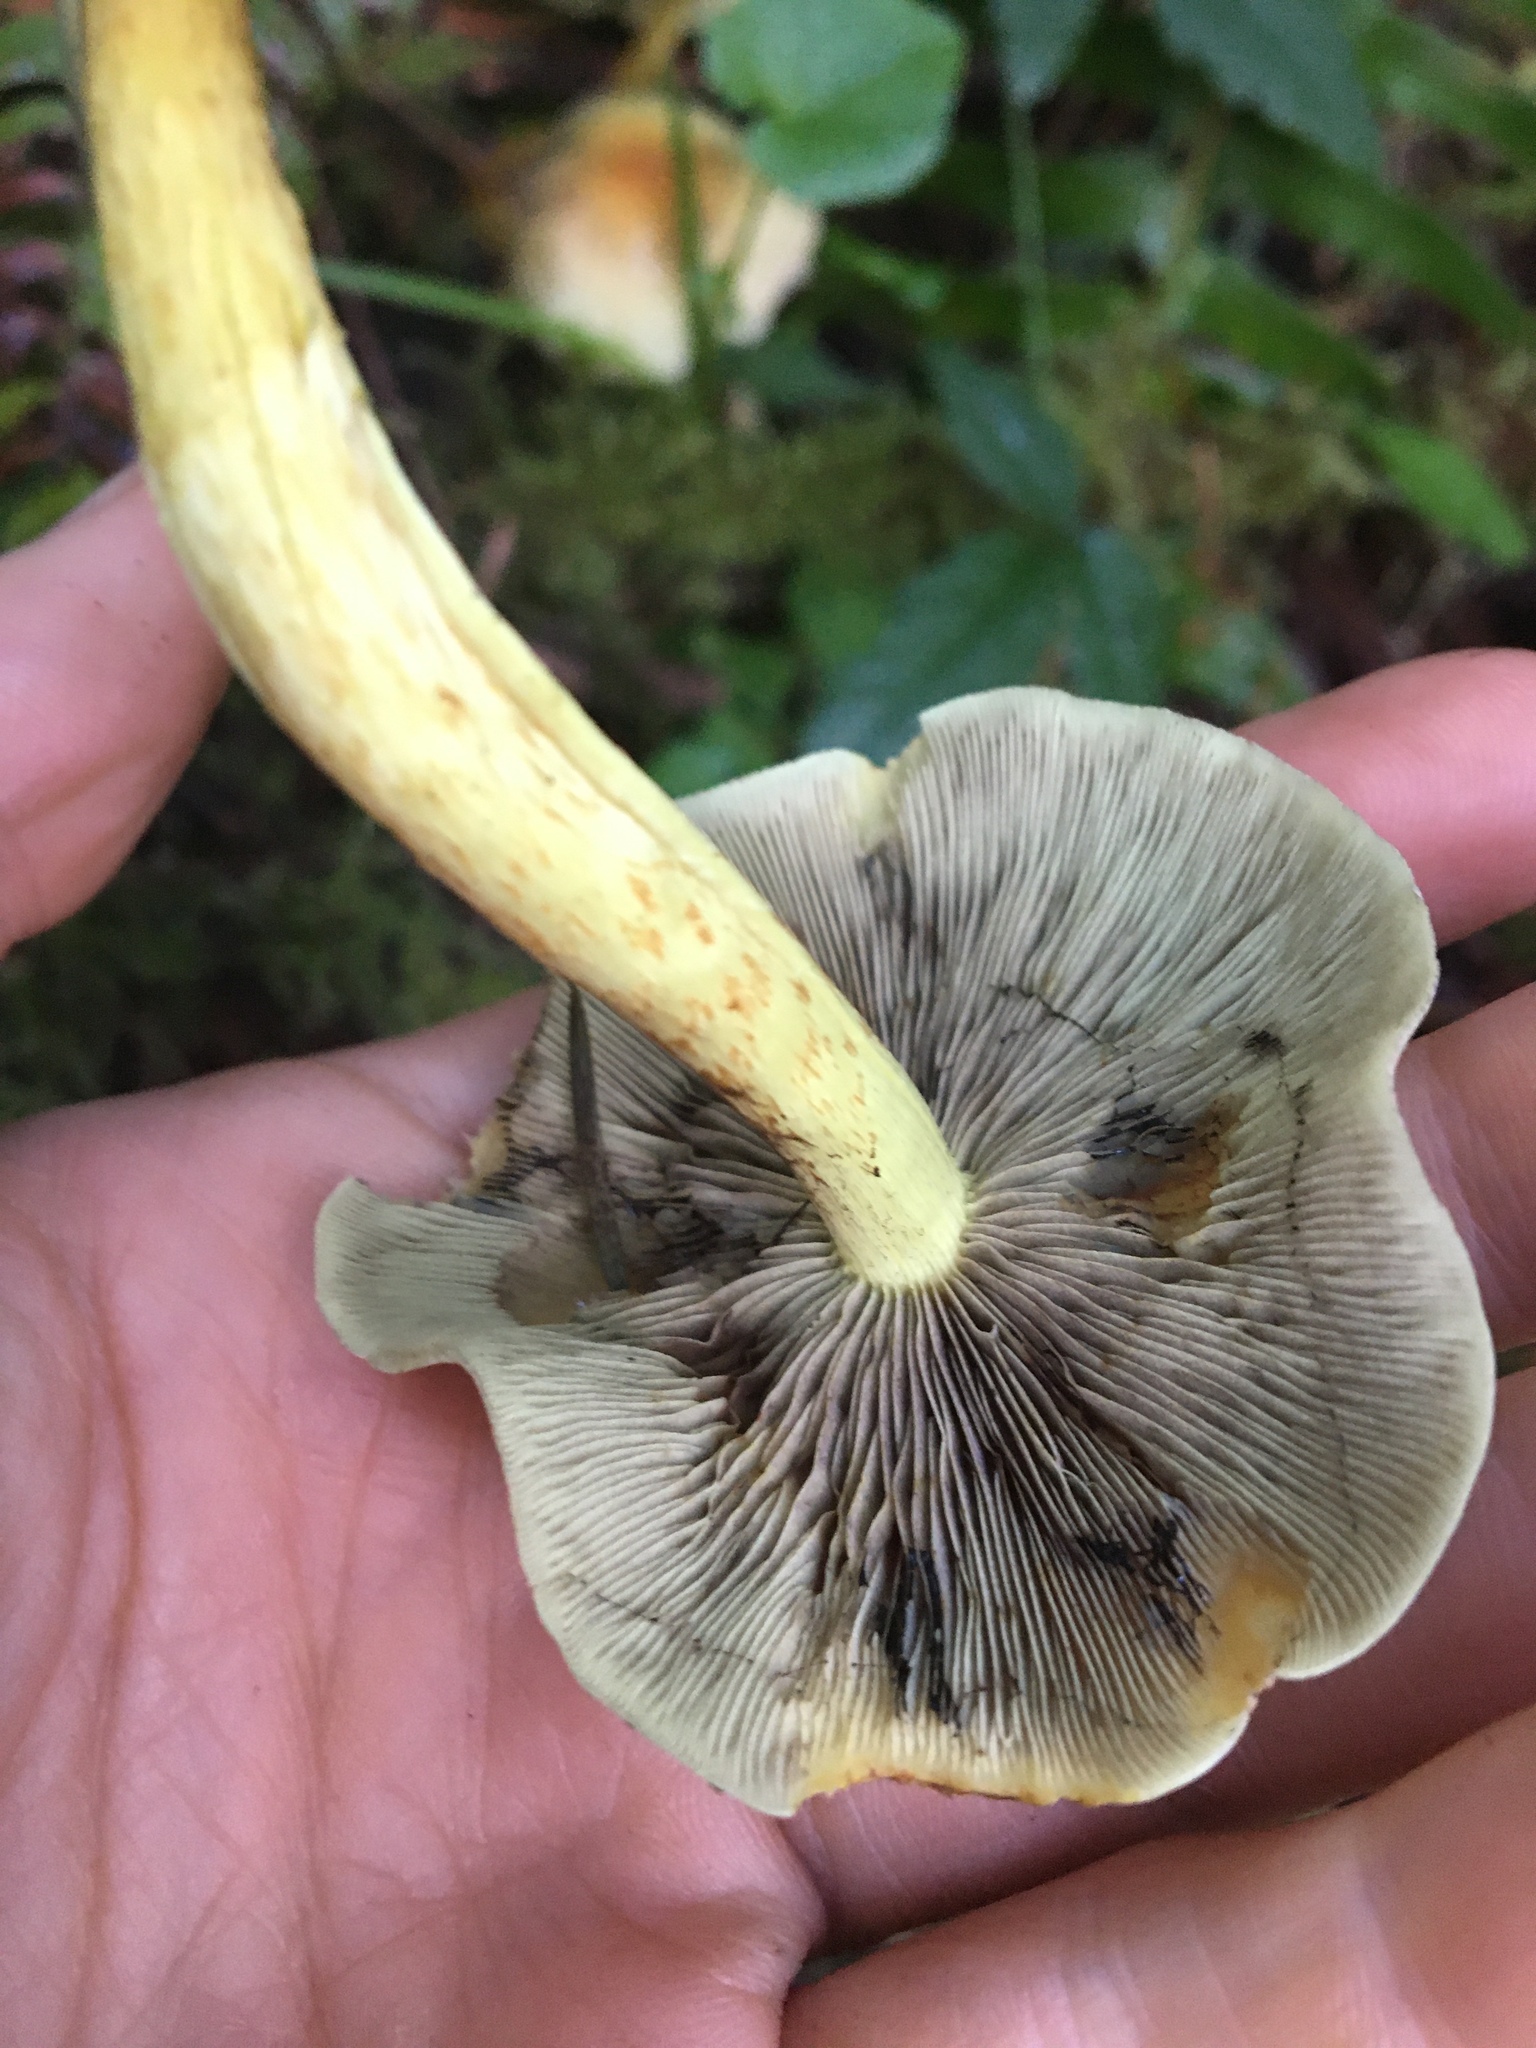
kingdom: Fungi
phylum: Basidiomycota
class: Agaricomycetes
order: Agaricales
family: Strophariaceae
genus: Hypholoma
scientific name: Hypholoma fasciculare
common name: Sulphur tuft
